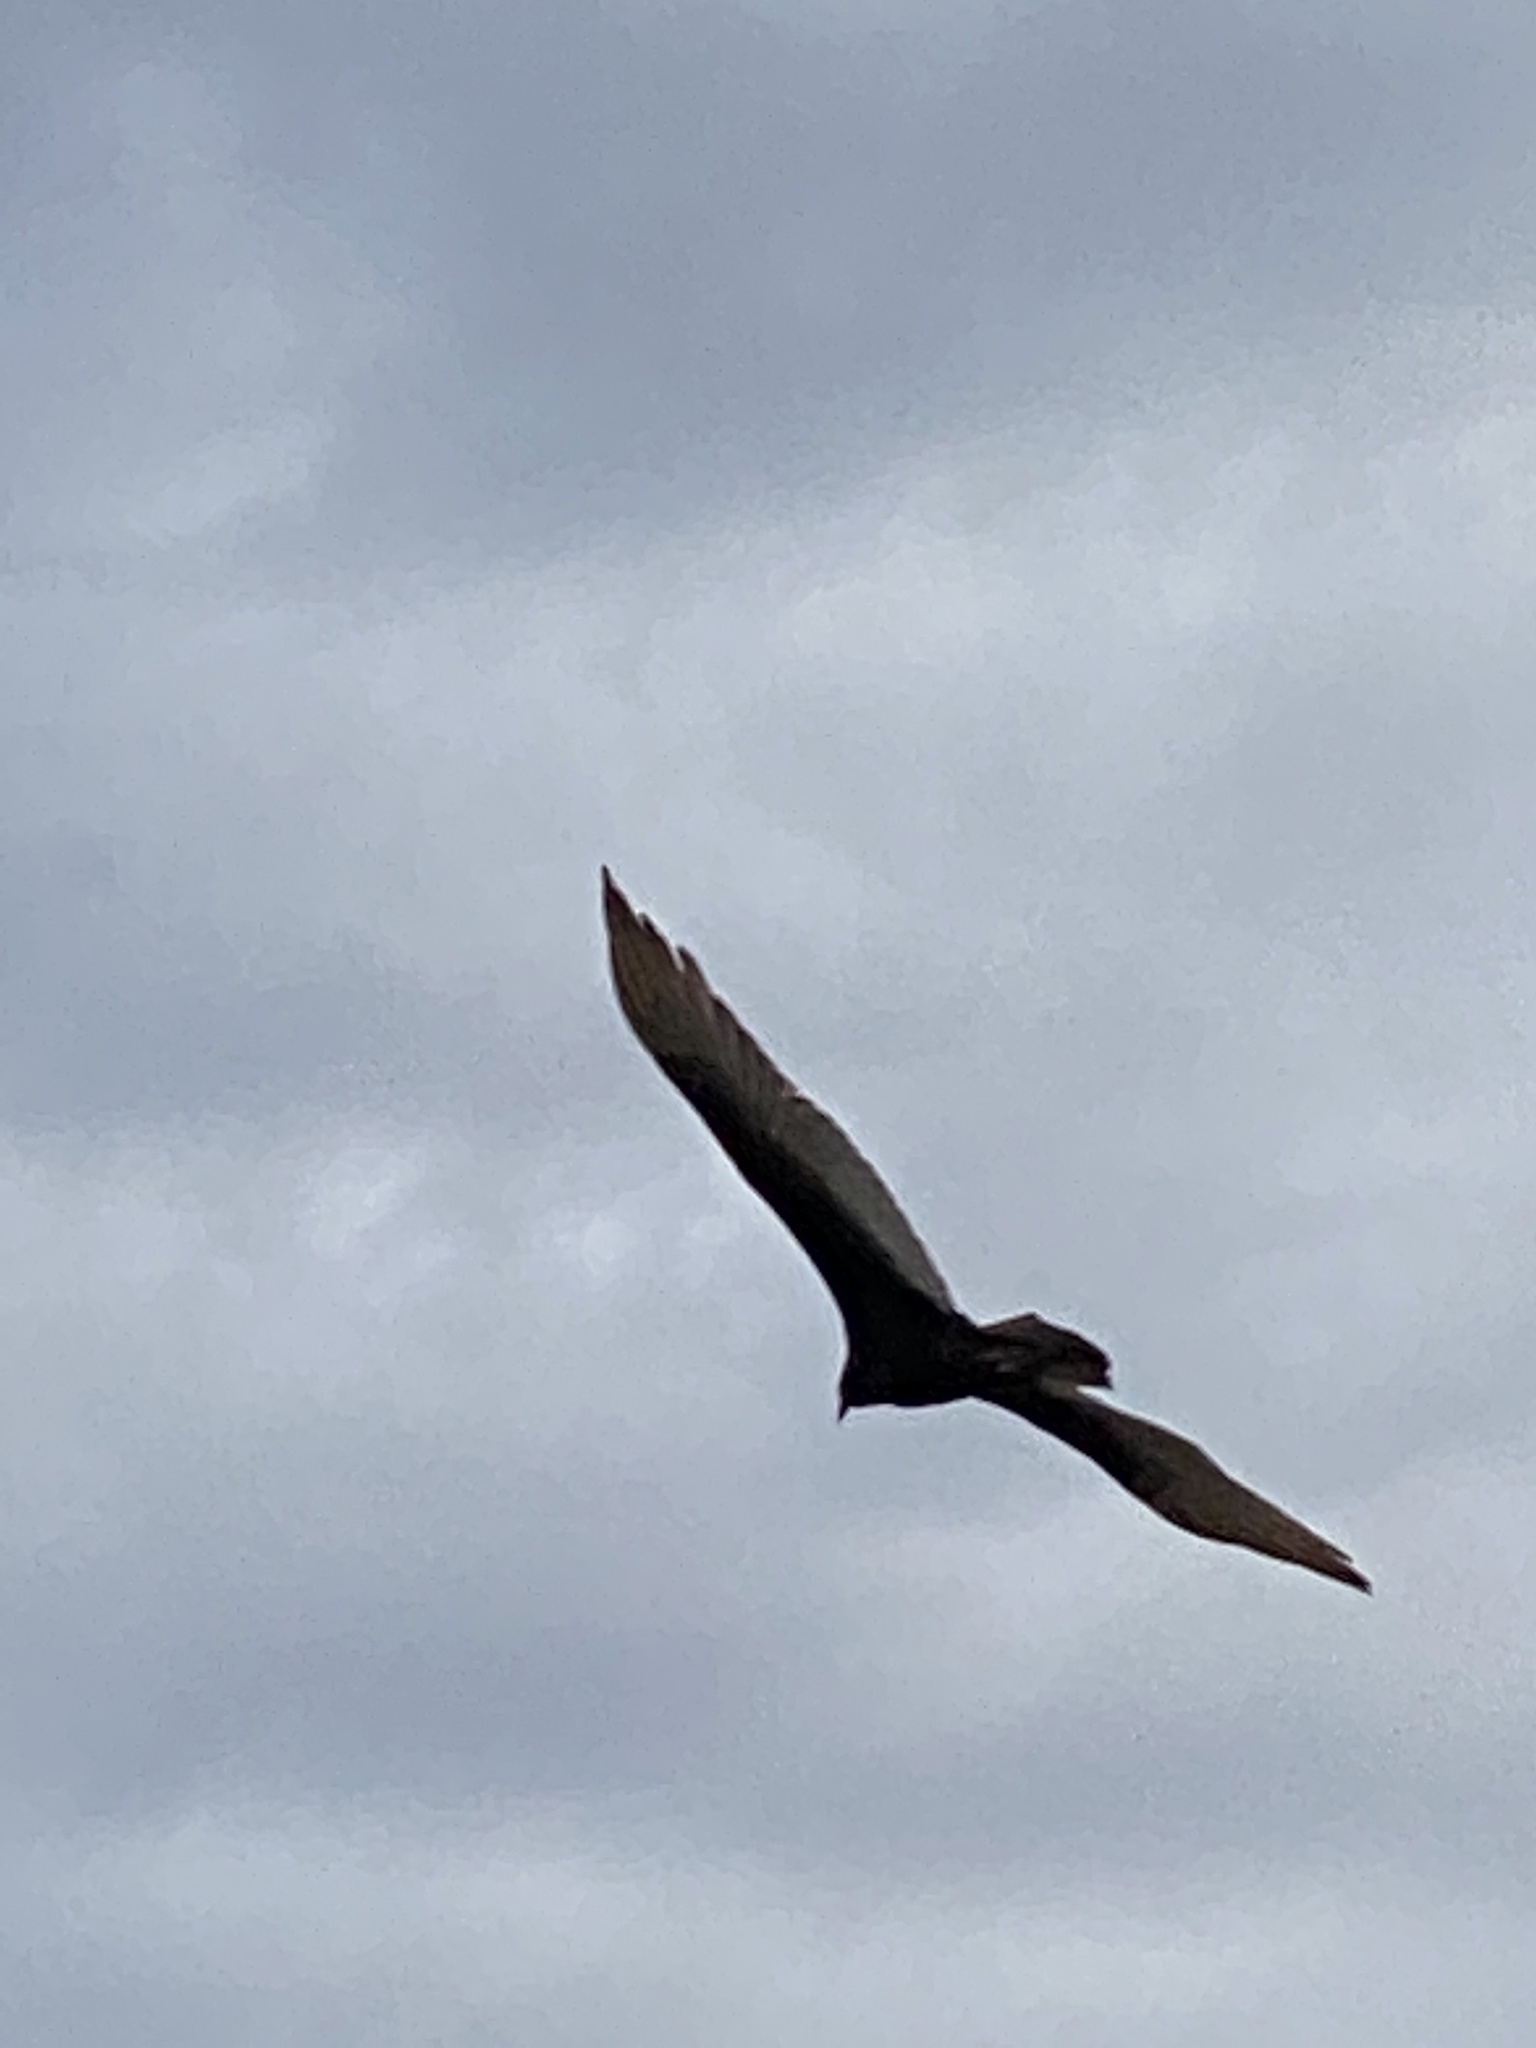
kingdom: Animalia
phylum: Chordata
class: Aves
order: Accipitriformes
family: Cathartidae
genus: Cathartes
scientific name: Cathartes aura
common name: Turkey vulture
